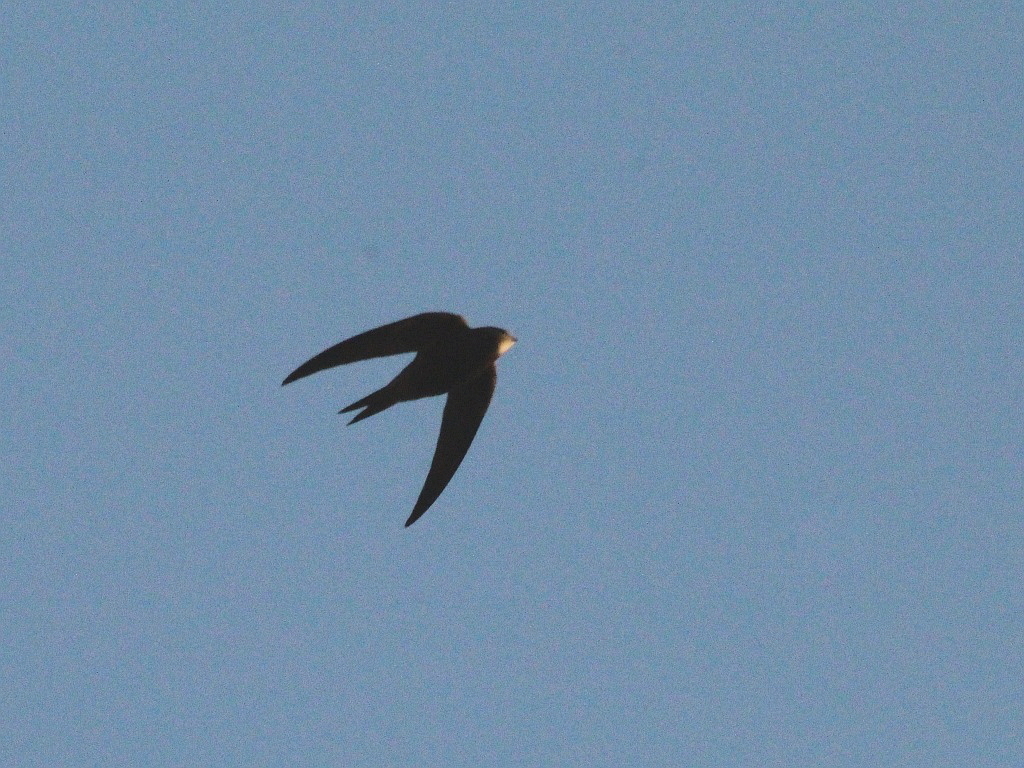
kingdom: Animalia
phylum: Chordata
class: Aves
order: Apodiformes
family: Apodidae
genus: Apus
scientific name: Apus apus
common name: Common swift
